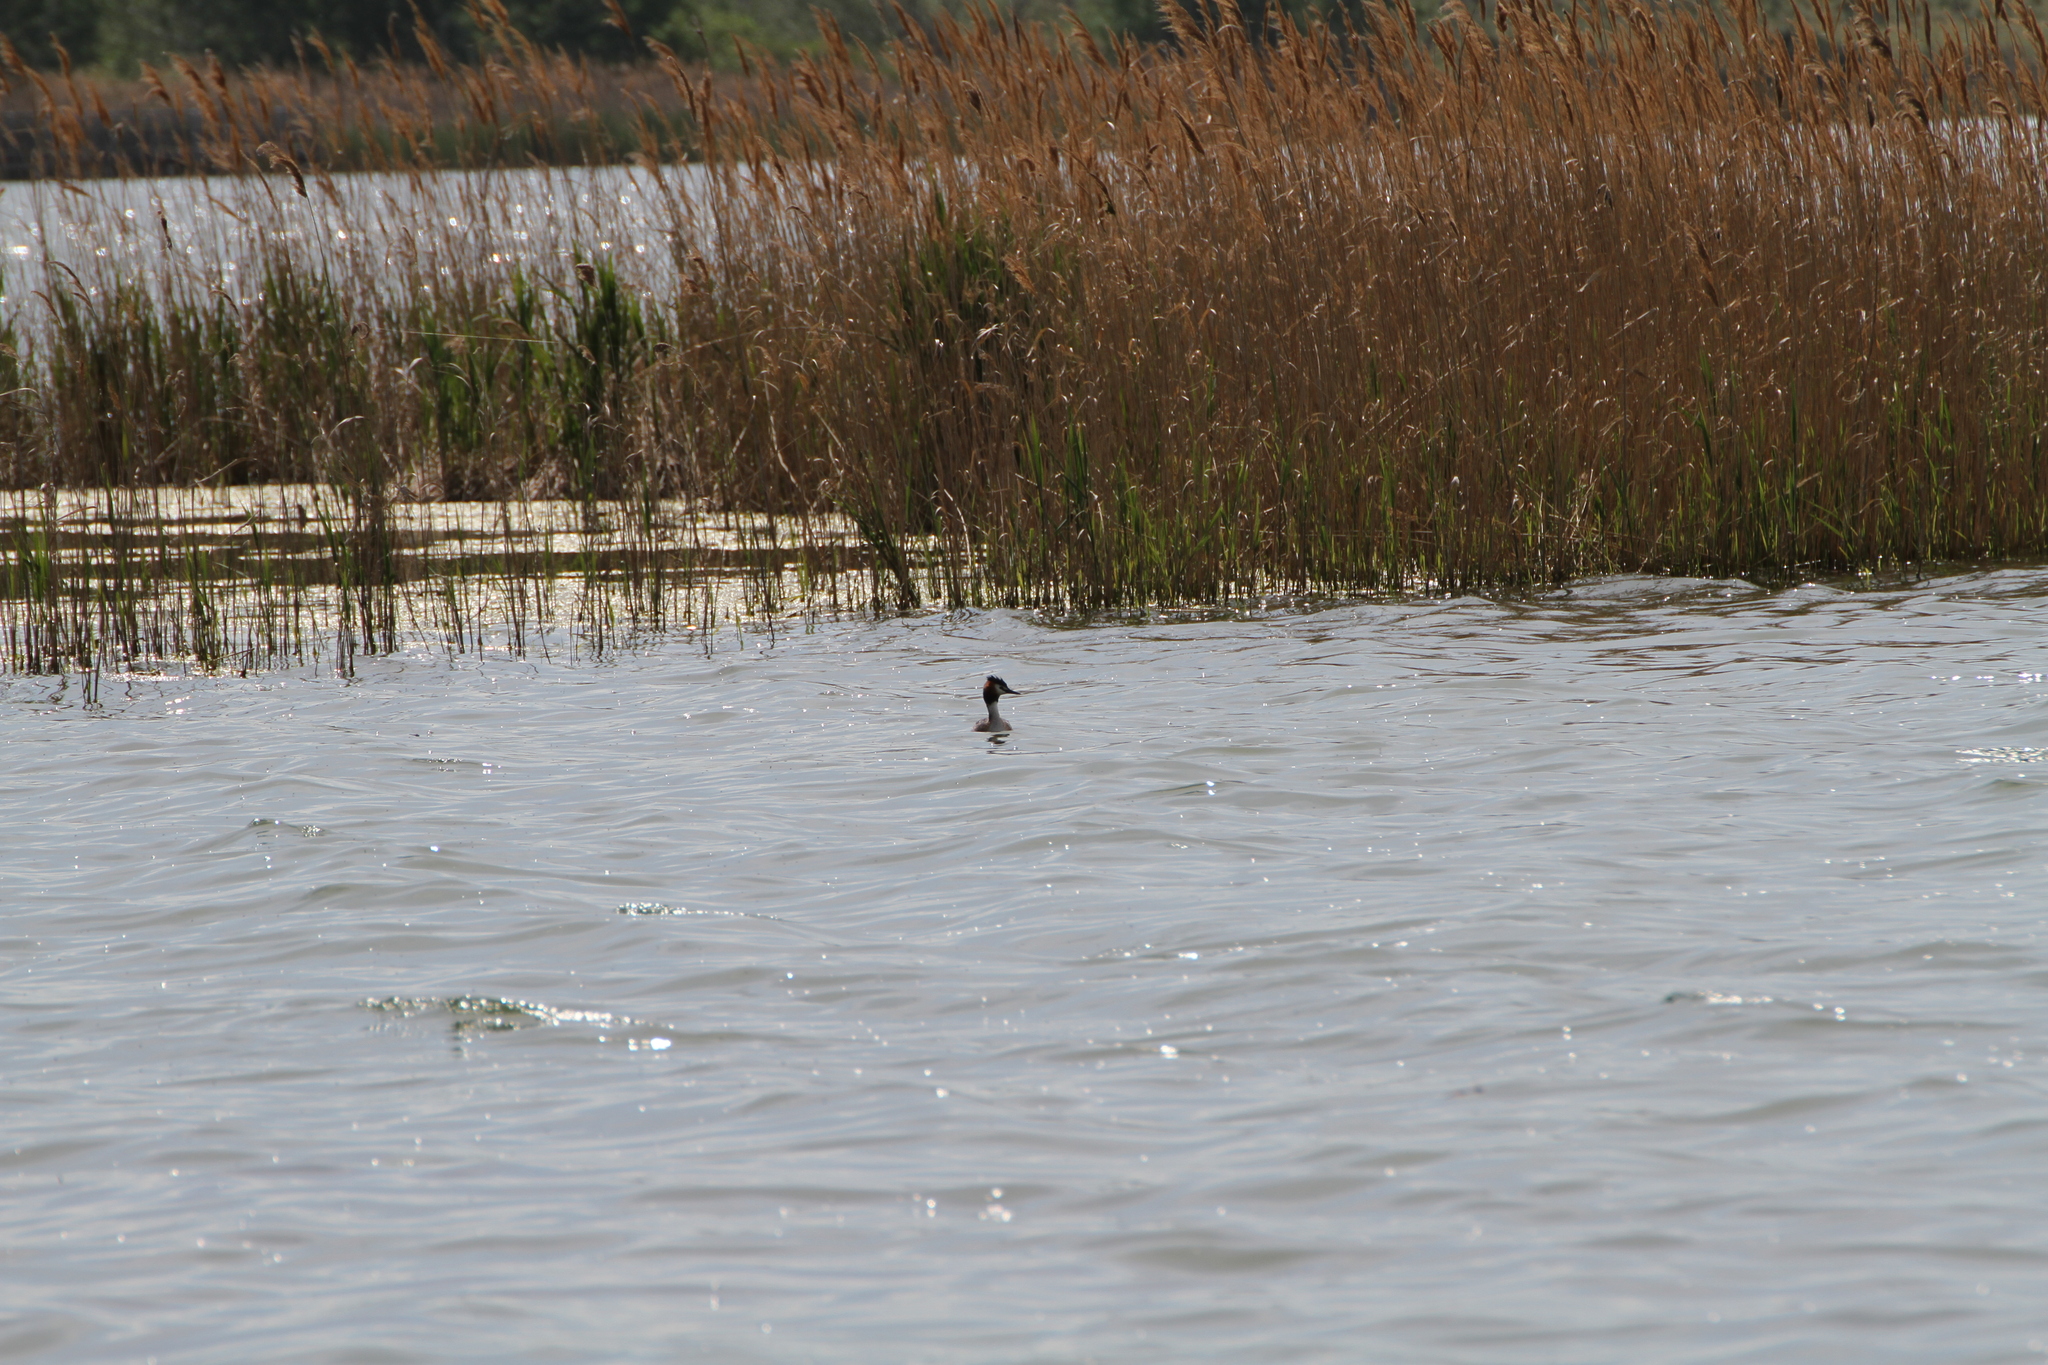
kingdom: Animalia
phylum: Chordata
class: Aves
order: Podicipediformes
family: Podicipedidae
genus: Podiceps
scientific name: Podiceps cristatus
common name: Great crested grebe
